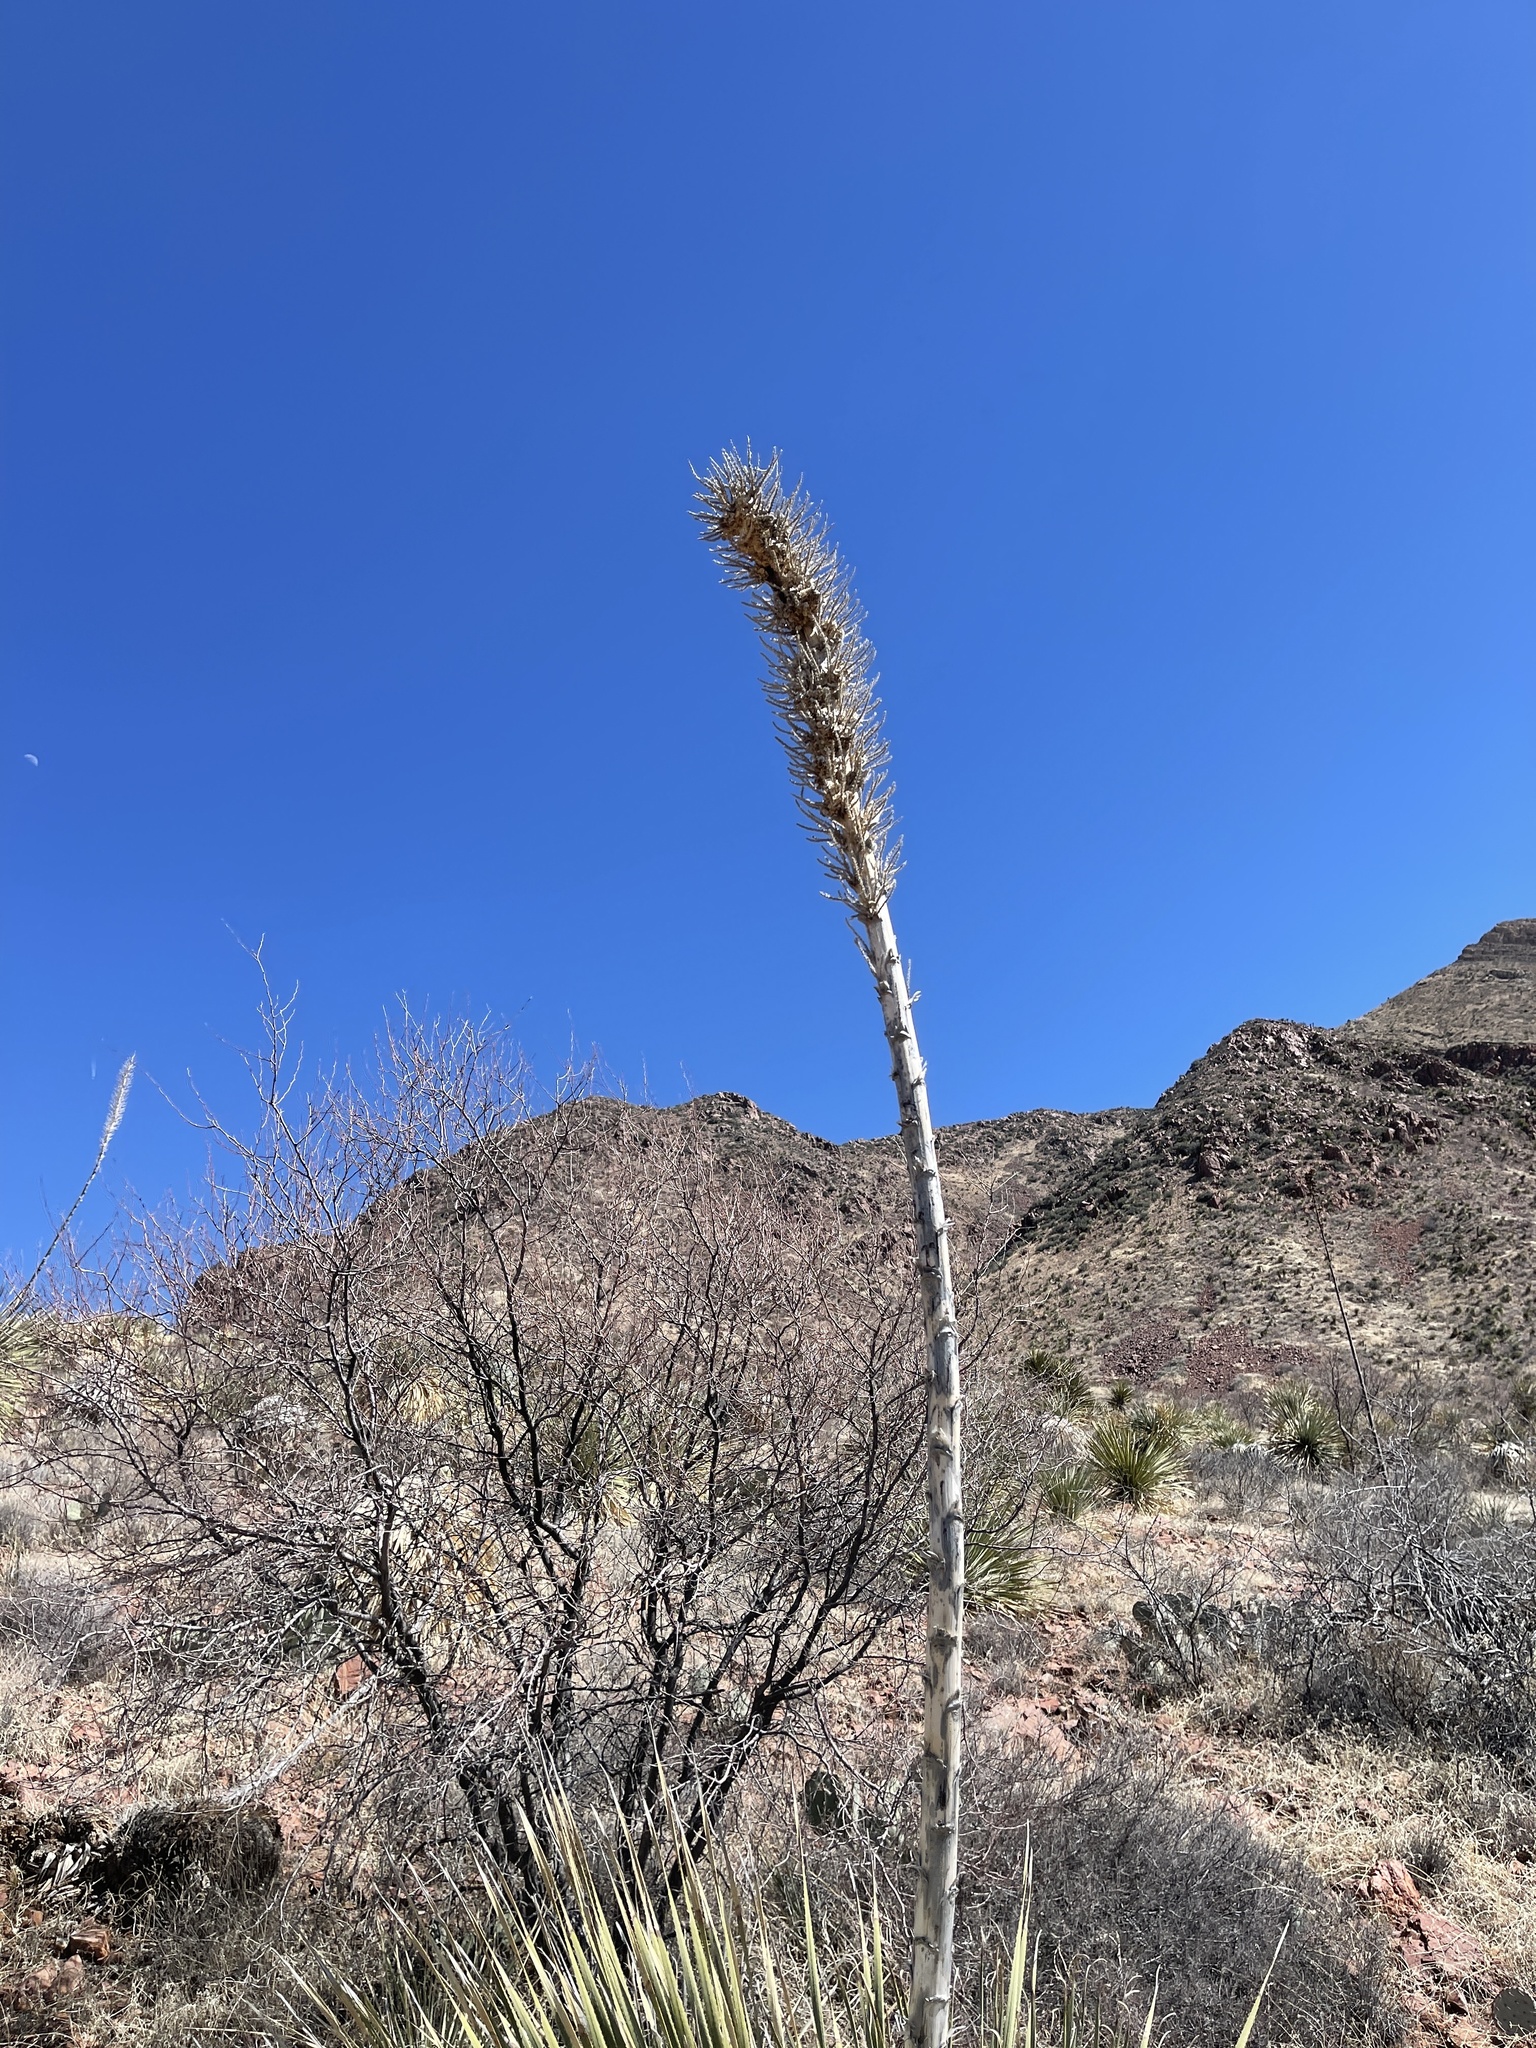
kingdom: Plantae
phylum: Tracheophyta
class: Liliopsida
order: Asparagales
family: Asparagaceae
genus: Dasylirion
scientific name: Dasylirion wheeleri
